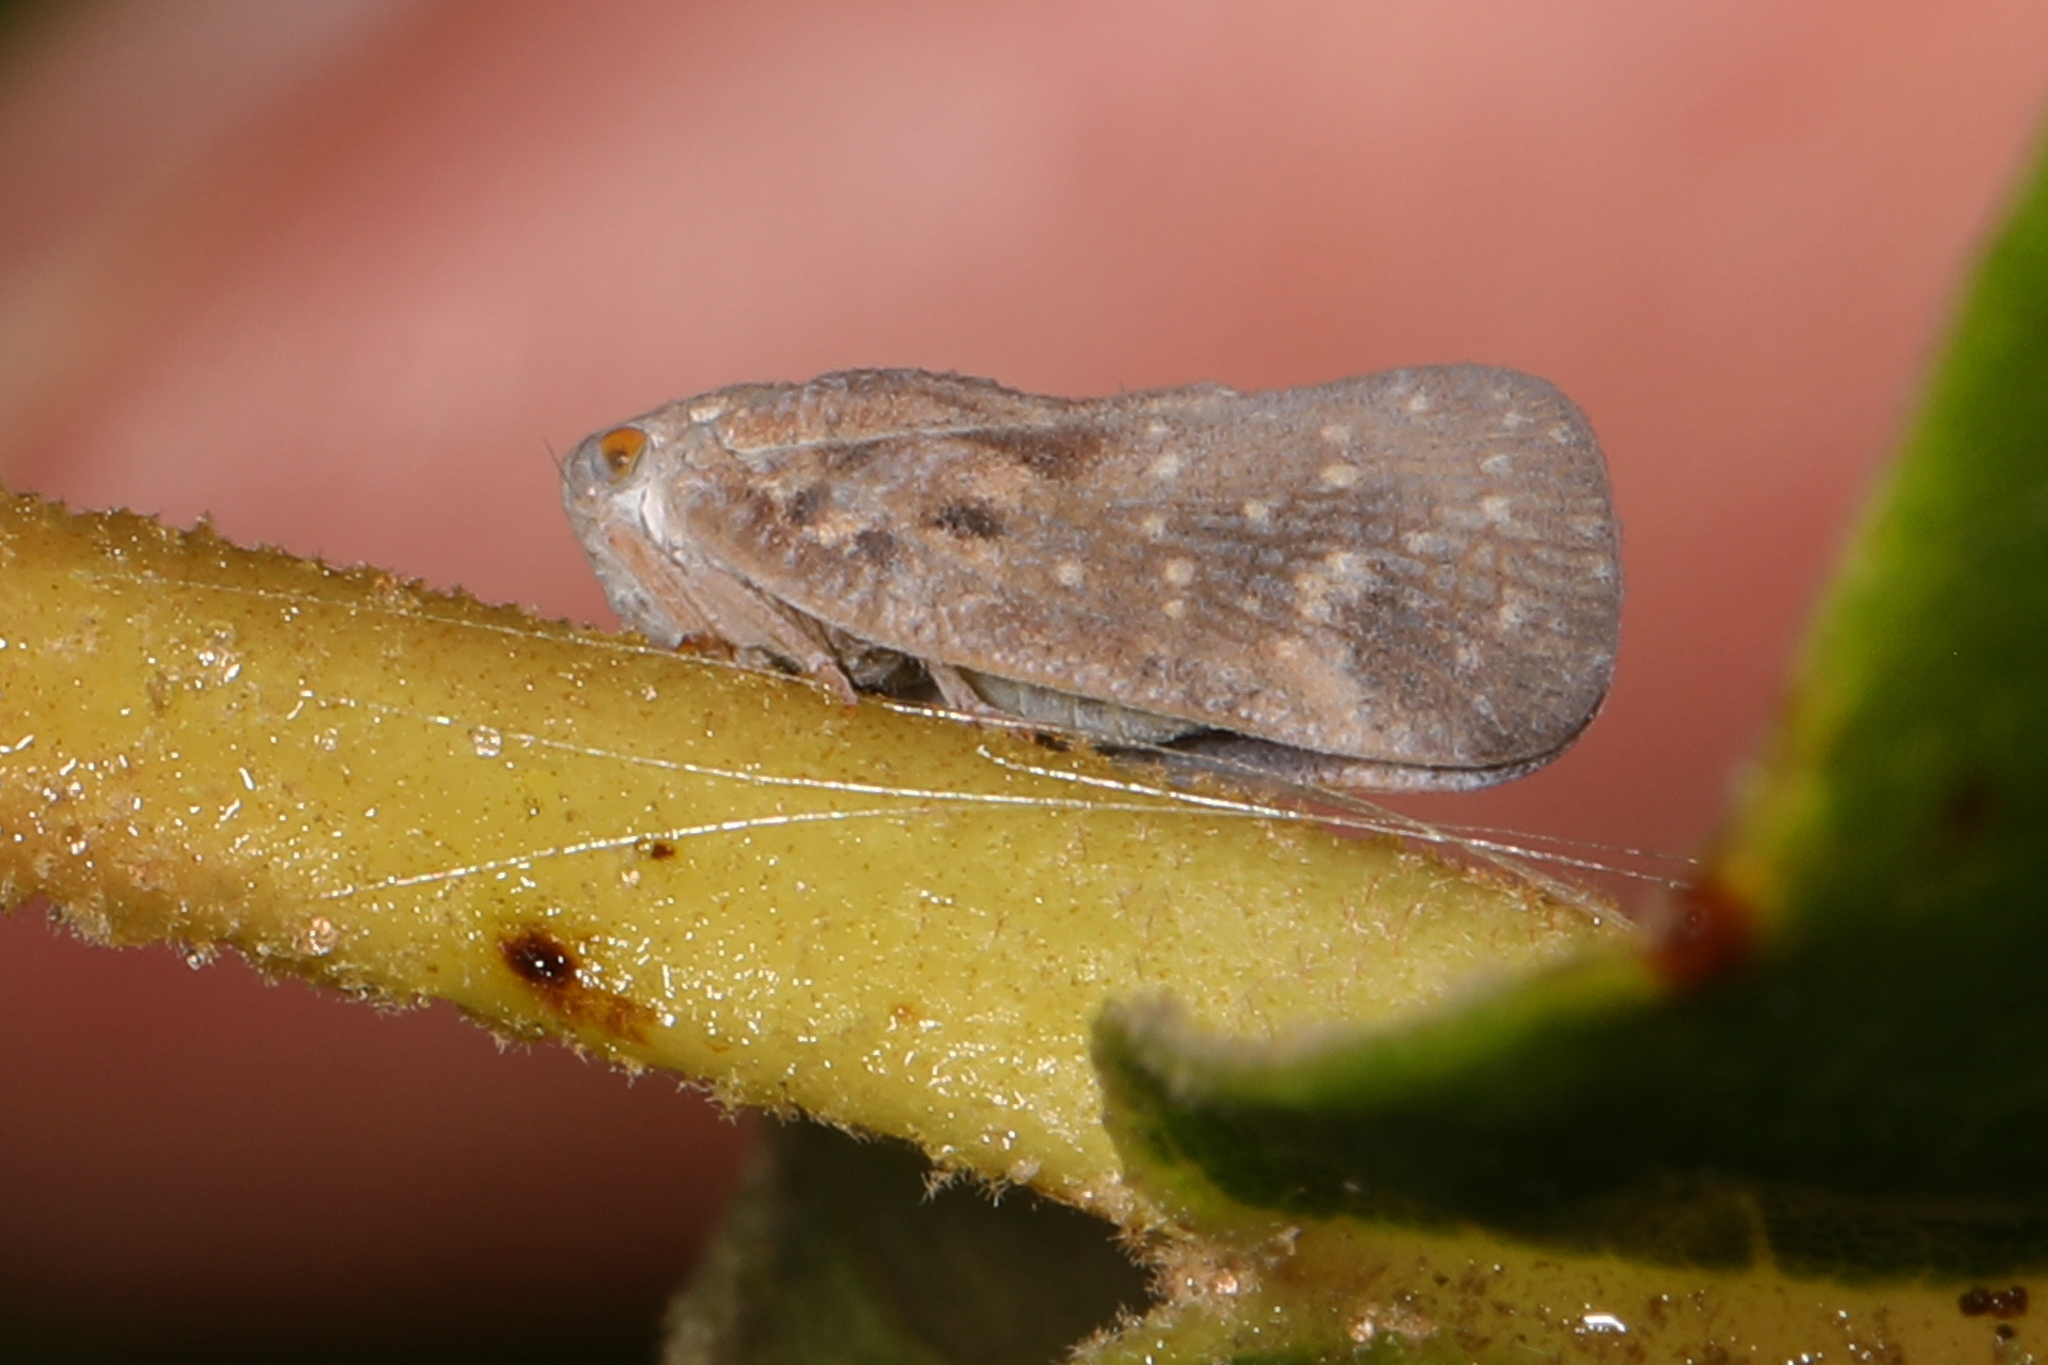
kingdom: Animalia
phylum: Arthropoda
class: Insecta
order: Hemiptera
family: Flatidae
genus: Metcalfa
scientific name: Metcalfa pruinosa
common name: Citrus flatid planthopper
